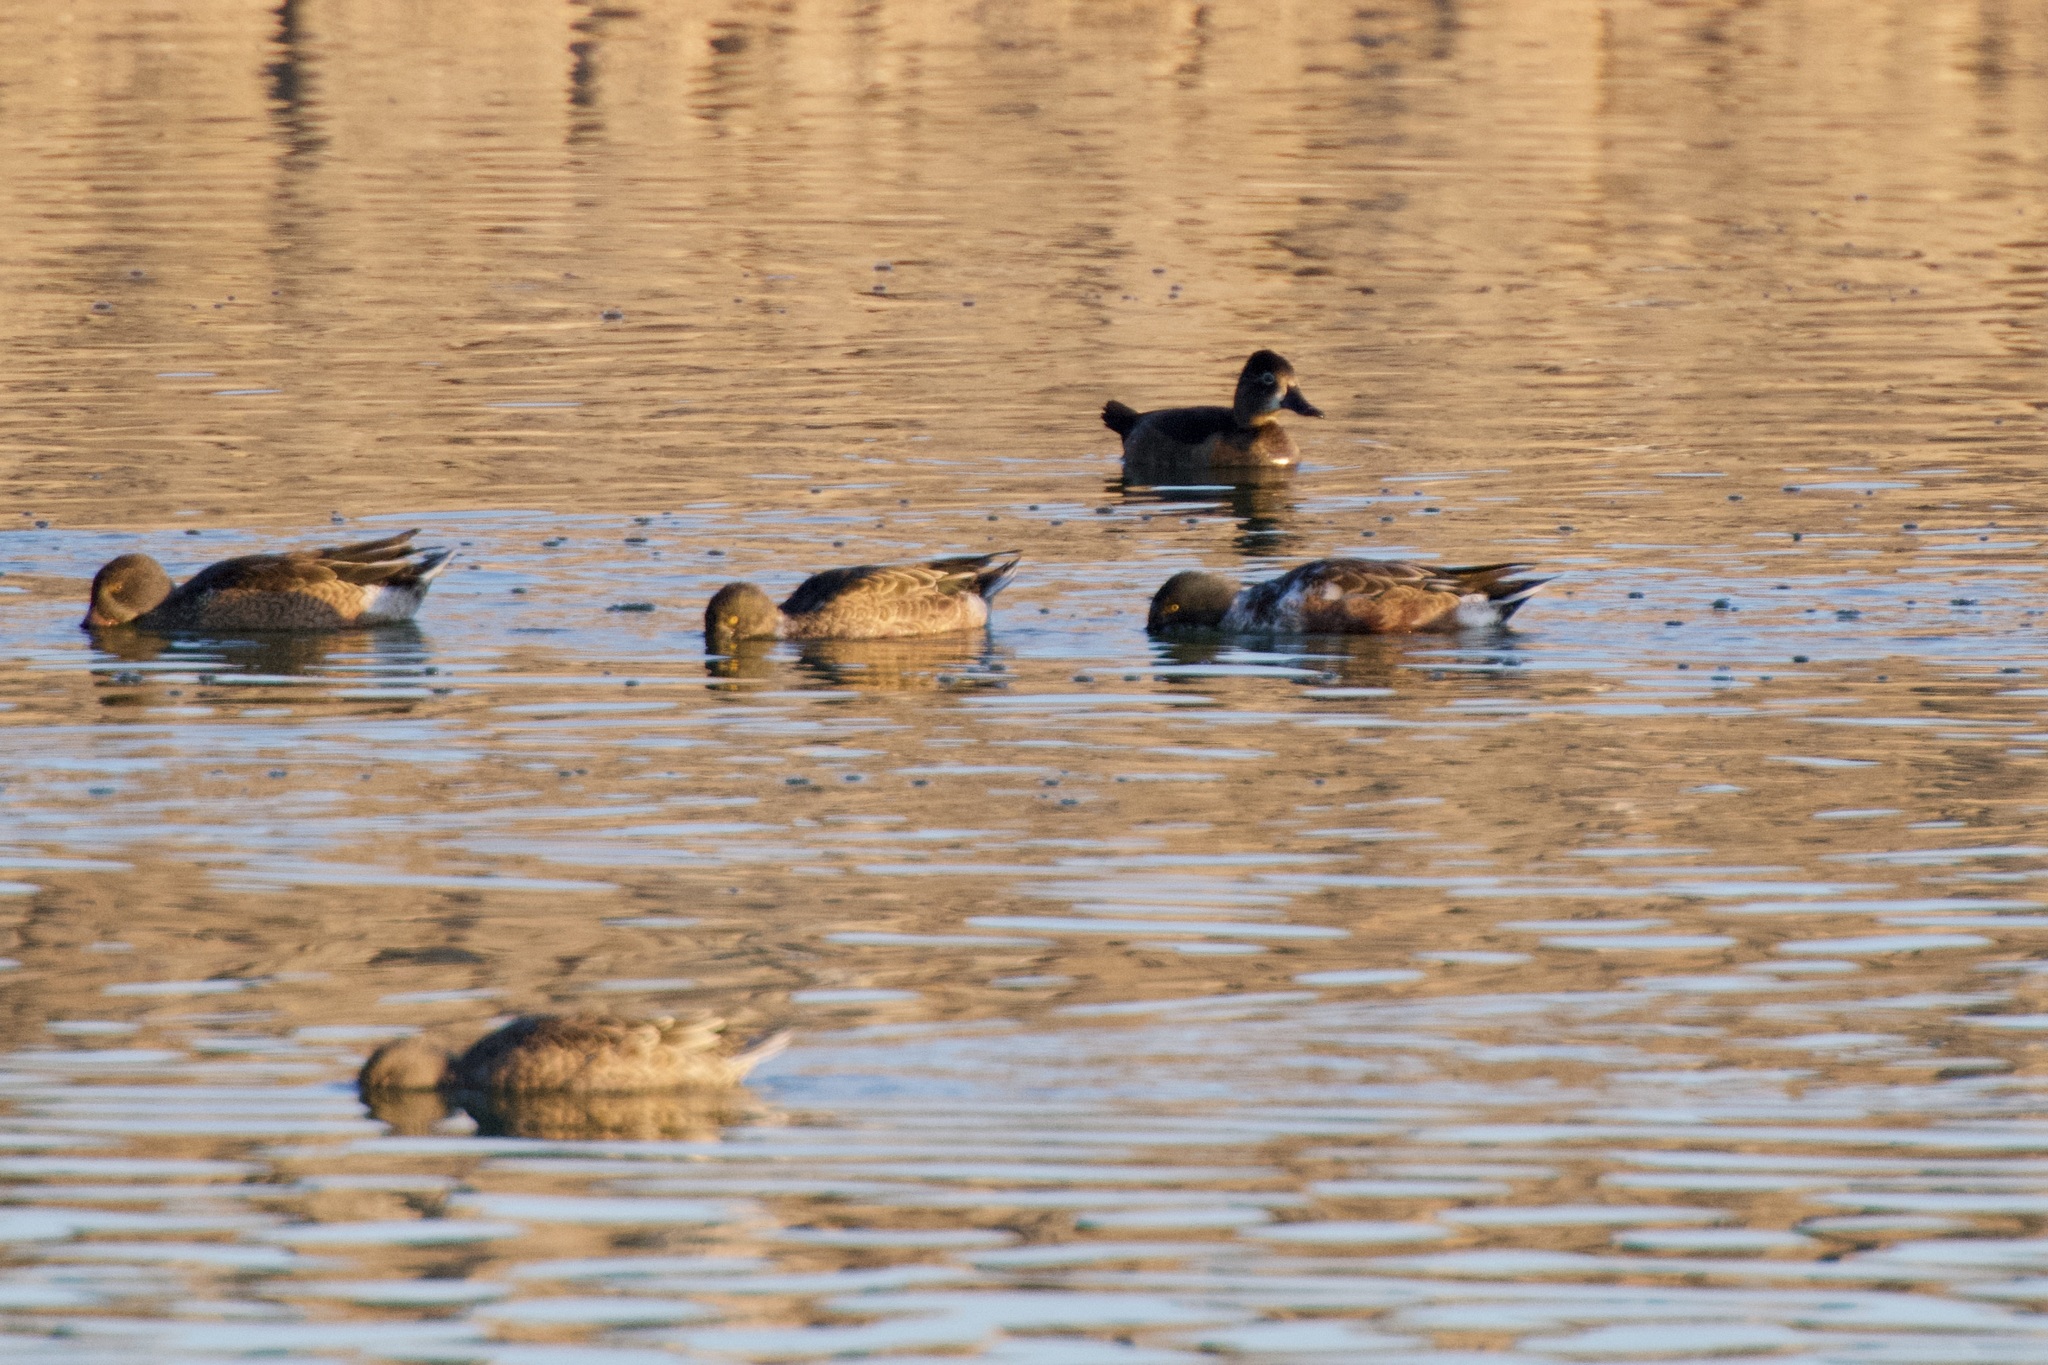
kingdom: Animalia
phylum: Chordata
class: Aves
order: Anseriformes
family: Anatidae
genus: Aythya
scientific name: Aythya collaris
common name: Ring-necked duck
